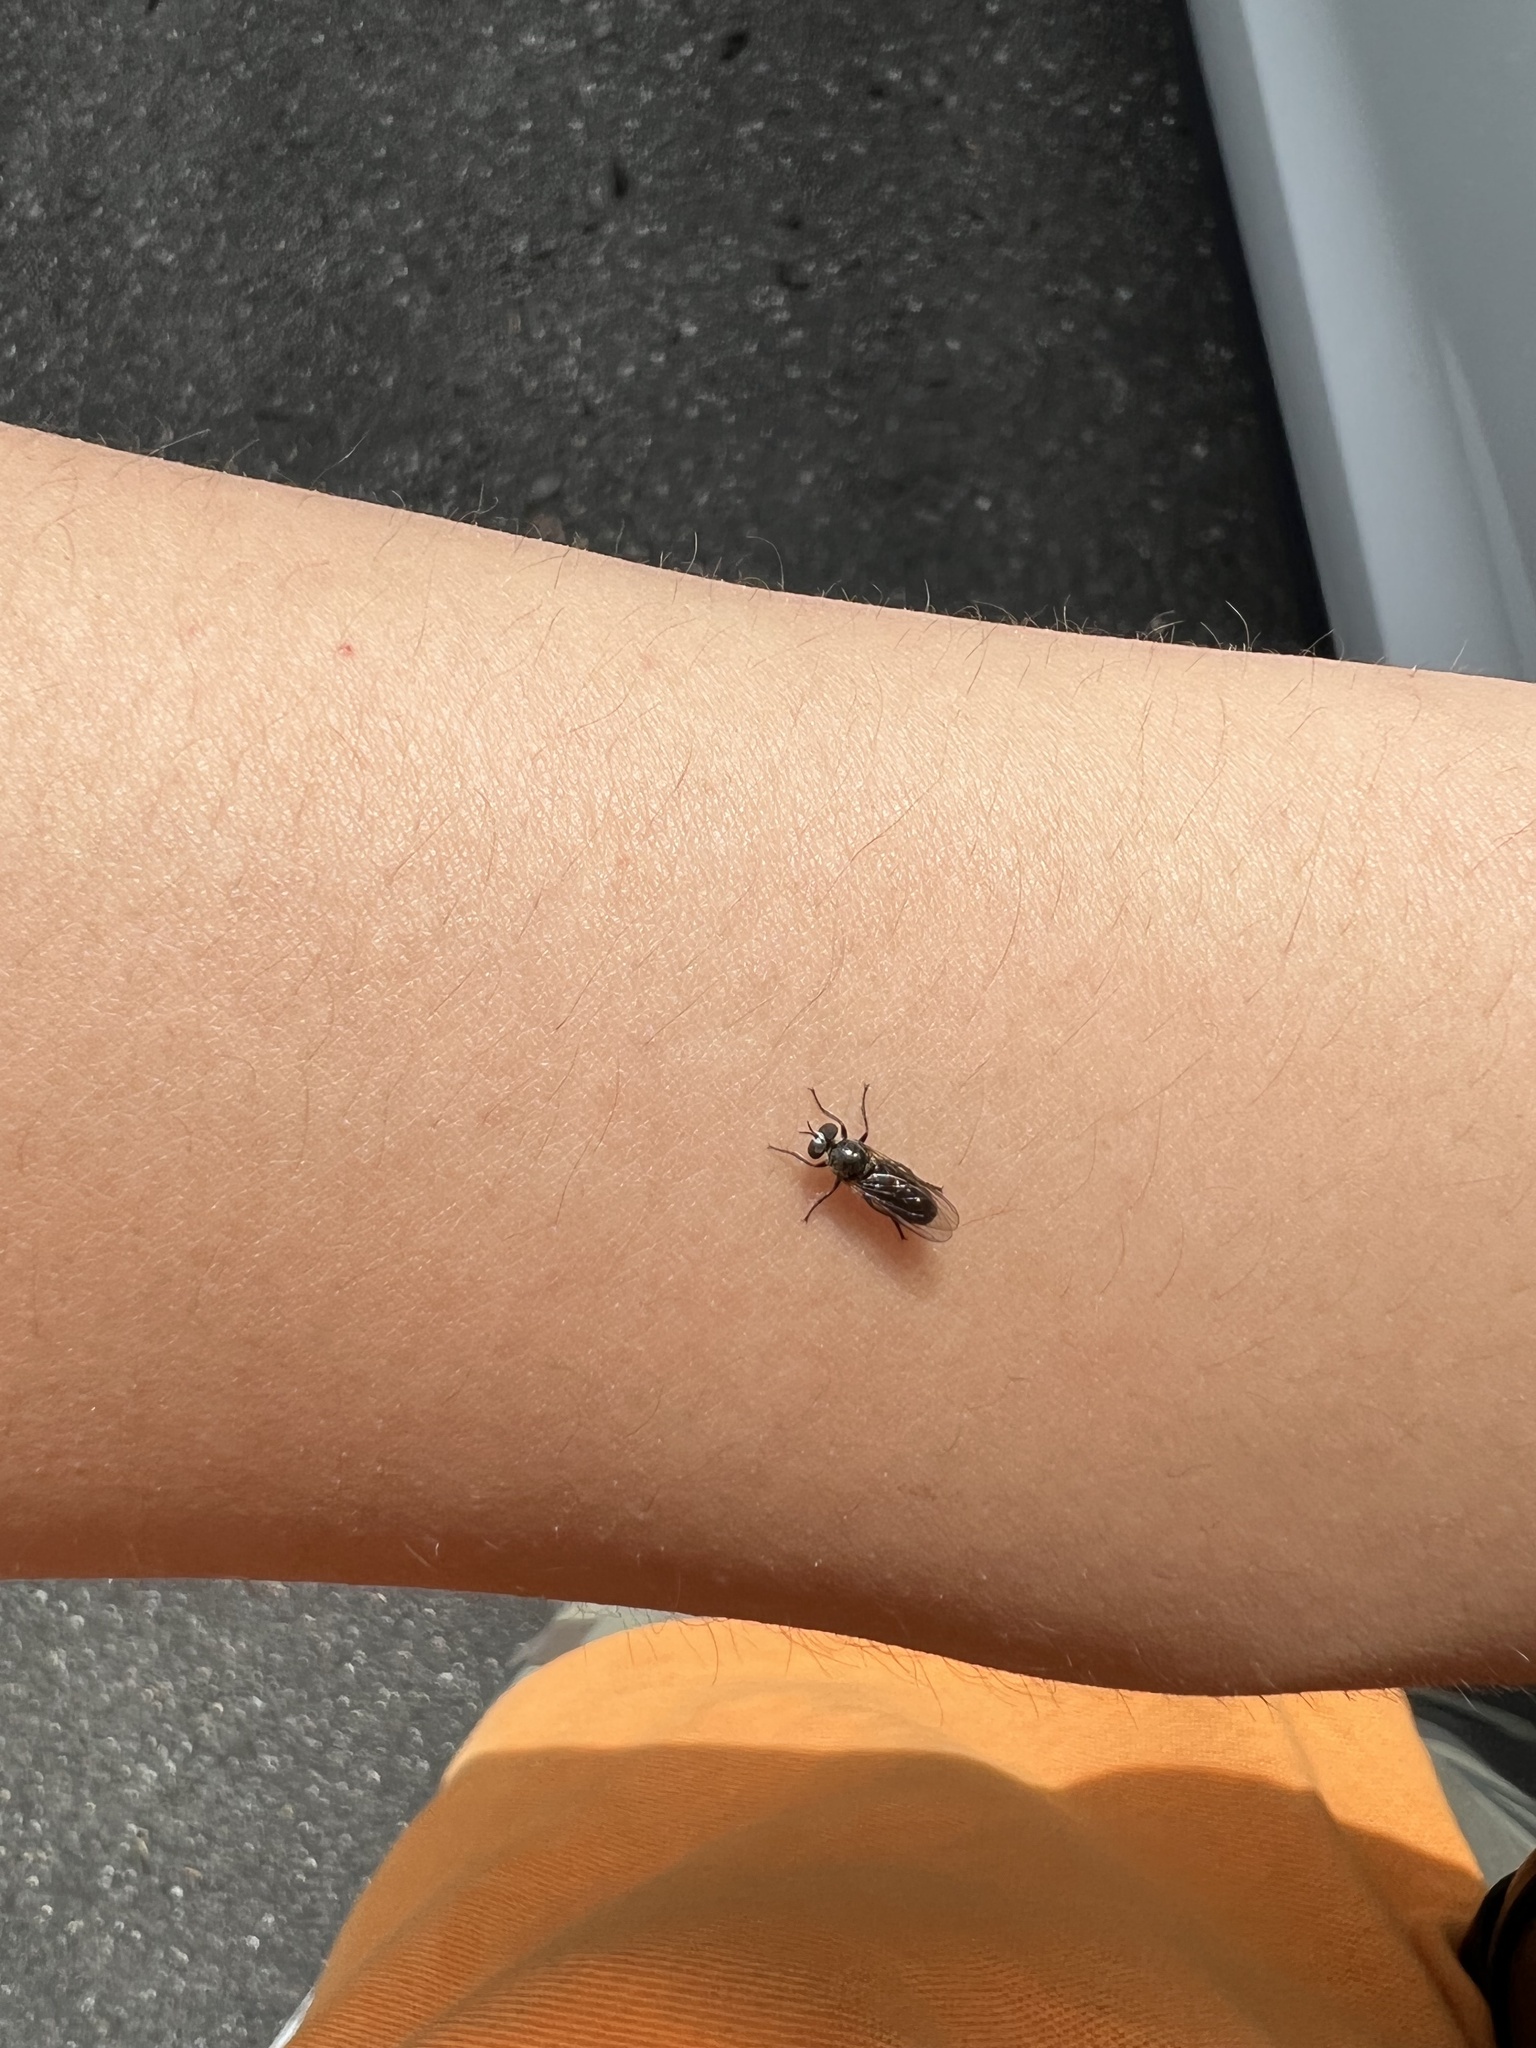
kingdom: Animalia
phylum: Arthropoda
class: Insecta
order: Diptera
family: Asilidae
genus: Atomosia
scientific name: Atomosia puella
